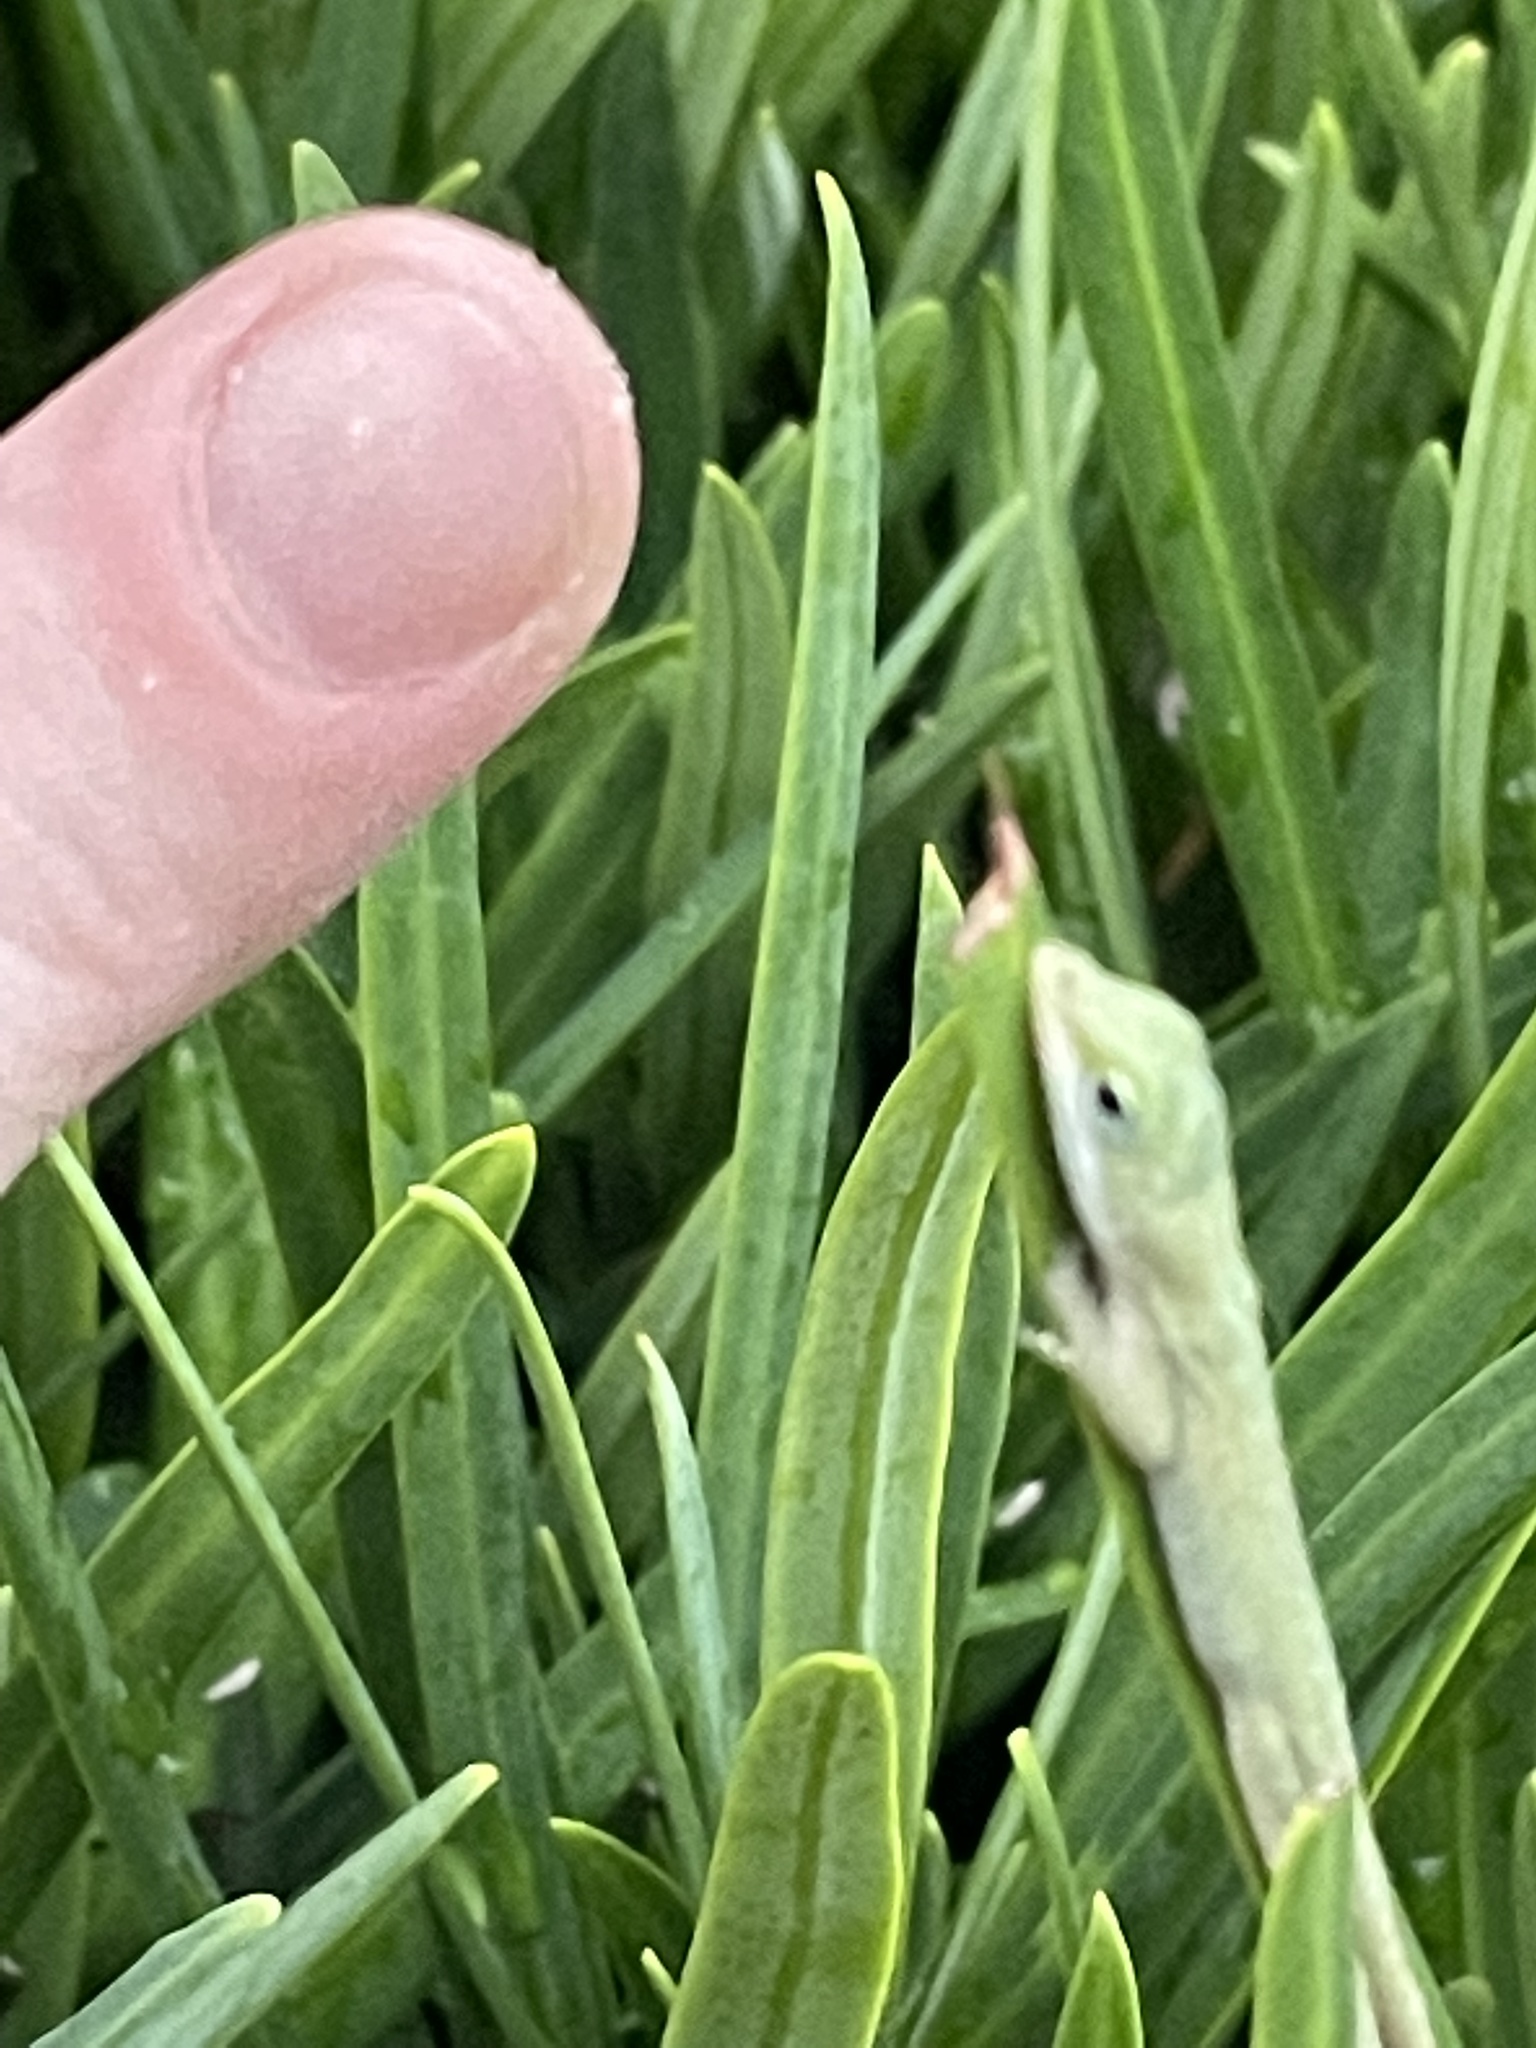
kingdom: Animalia
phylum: Chordata
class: Squamata
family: Dactyloidae
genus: Anolis
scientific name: Anolis carolinensis
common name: Green anole
